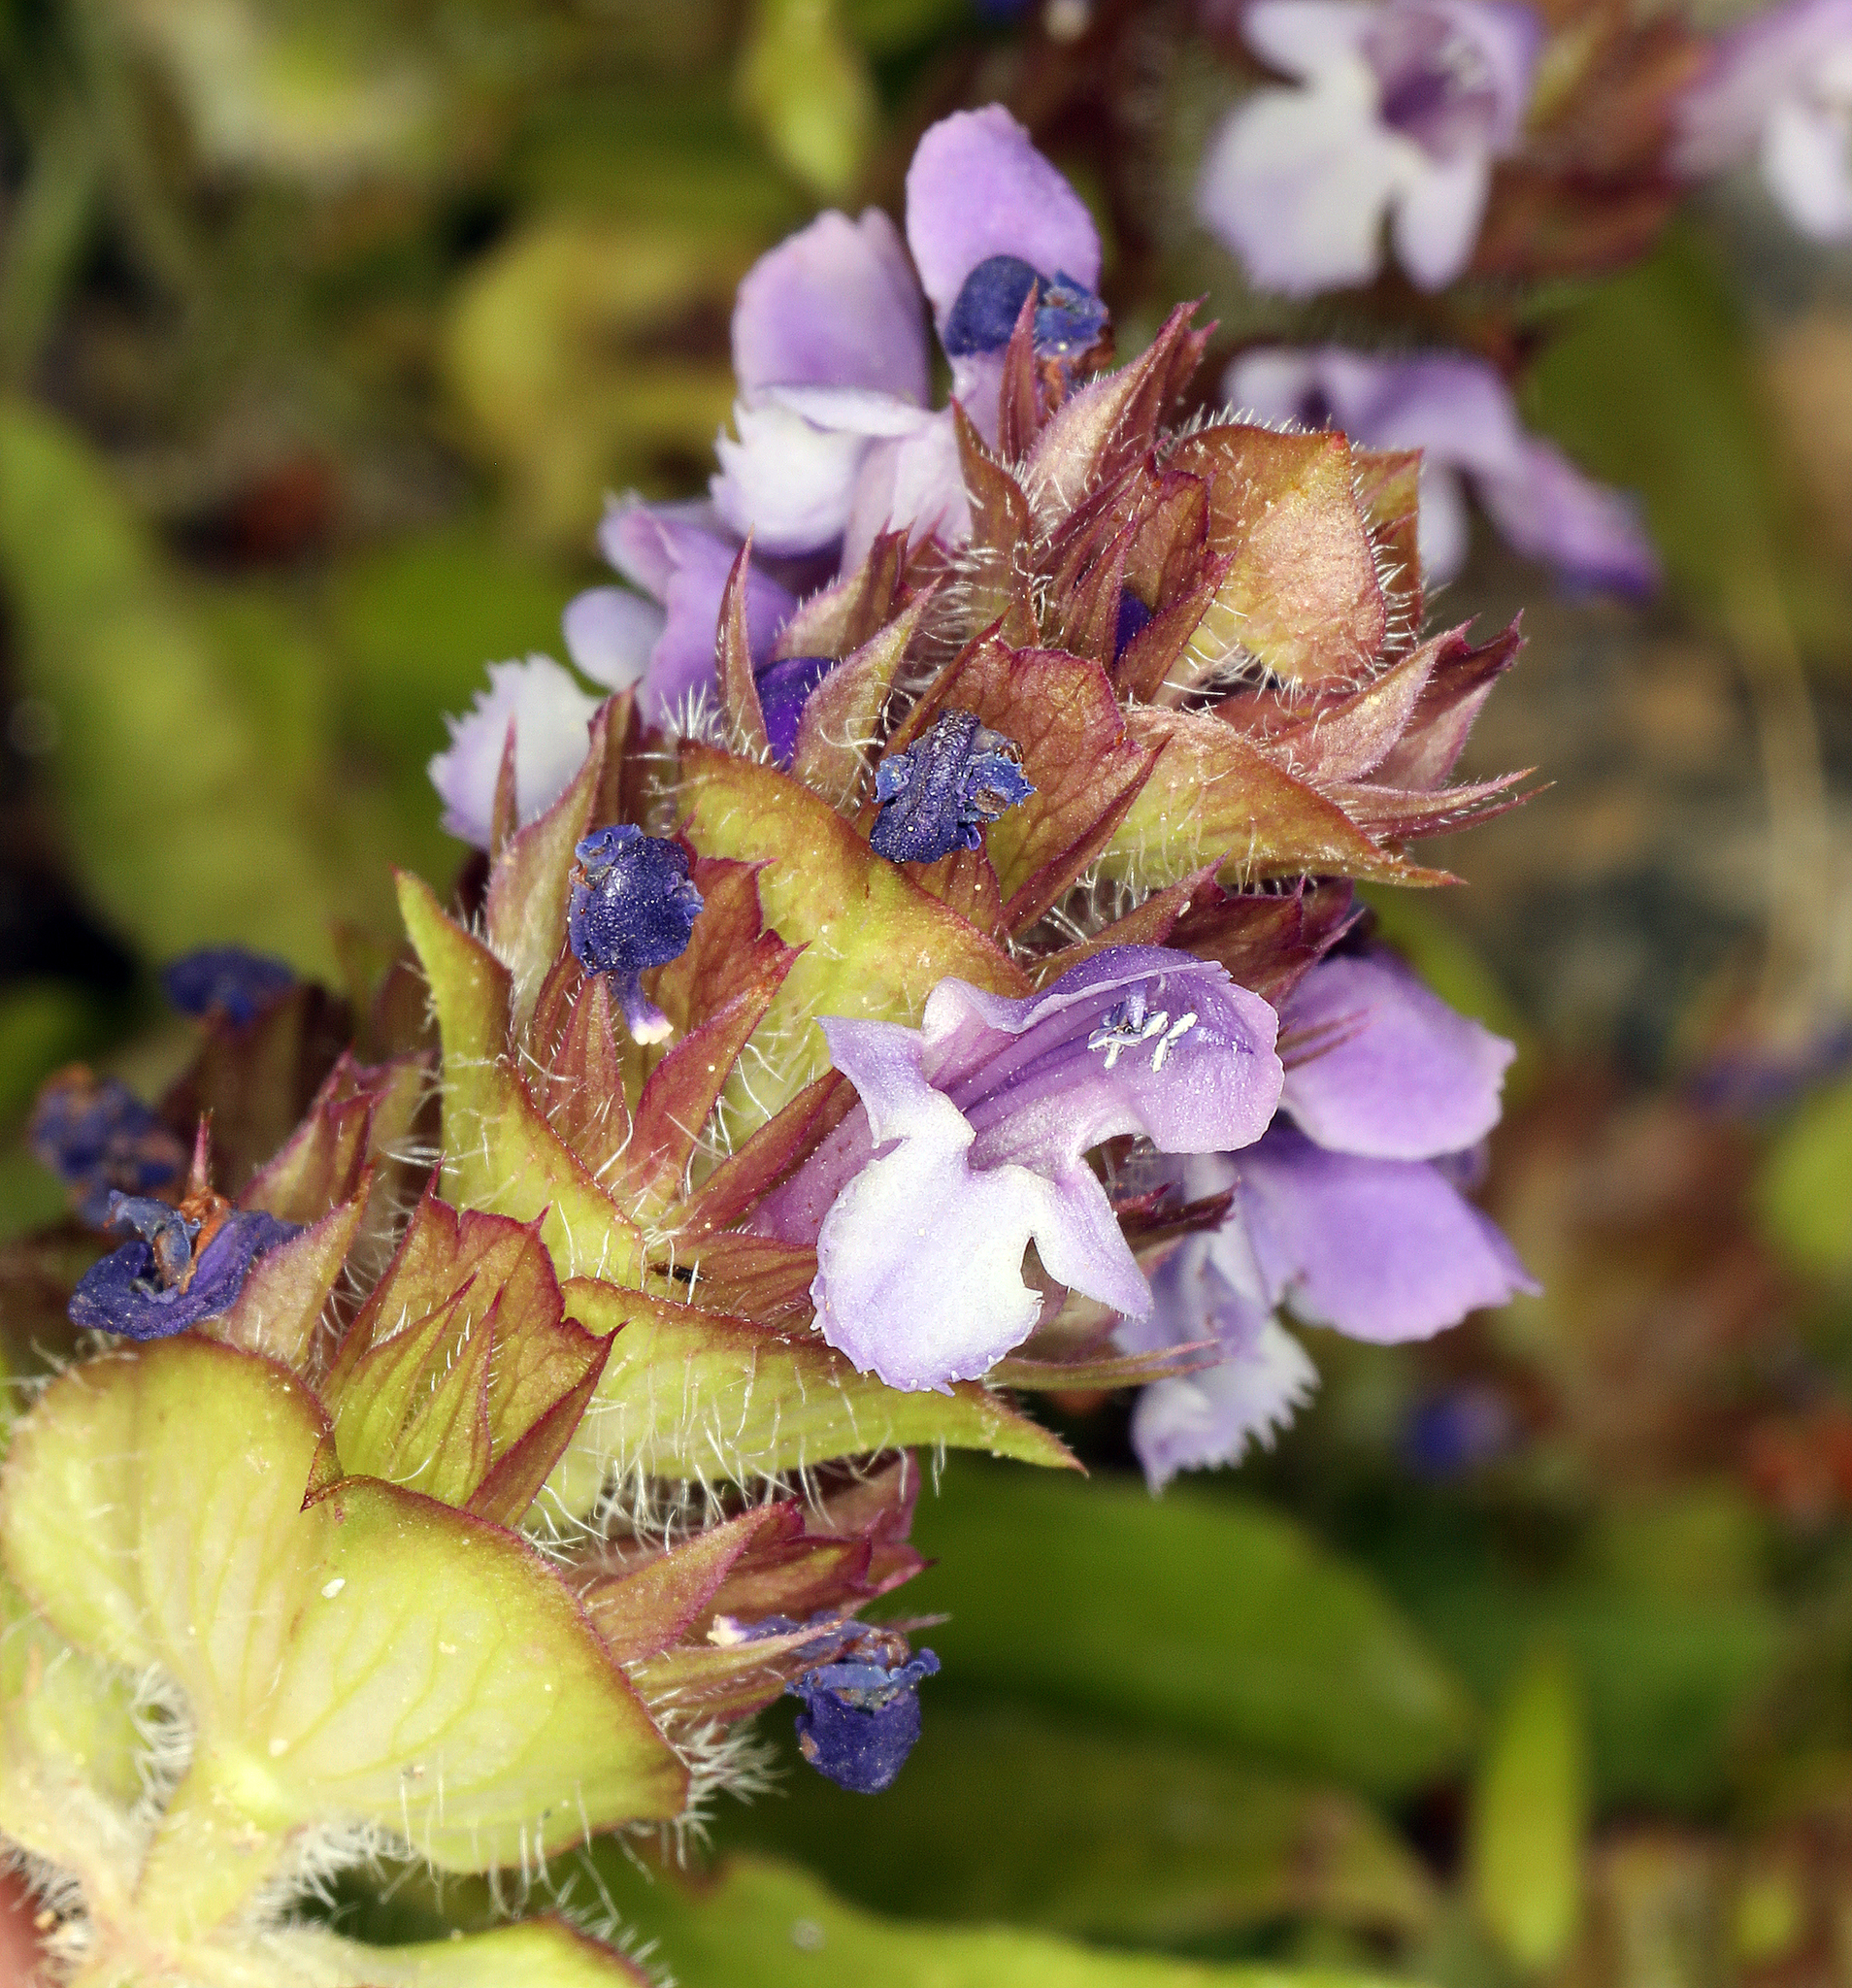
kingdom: Plantae
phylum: Tracheophyta
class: Magnoliopsida
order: Lamiales
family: Lamiaceae
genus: Prunella
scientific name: Prunella vulgaris
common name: Heal-all
